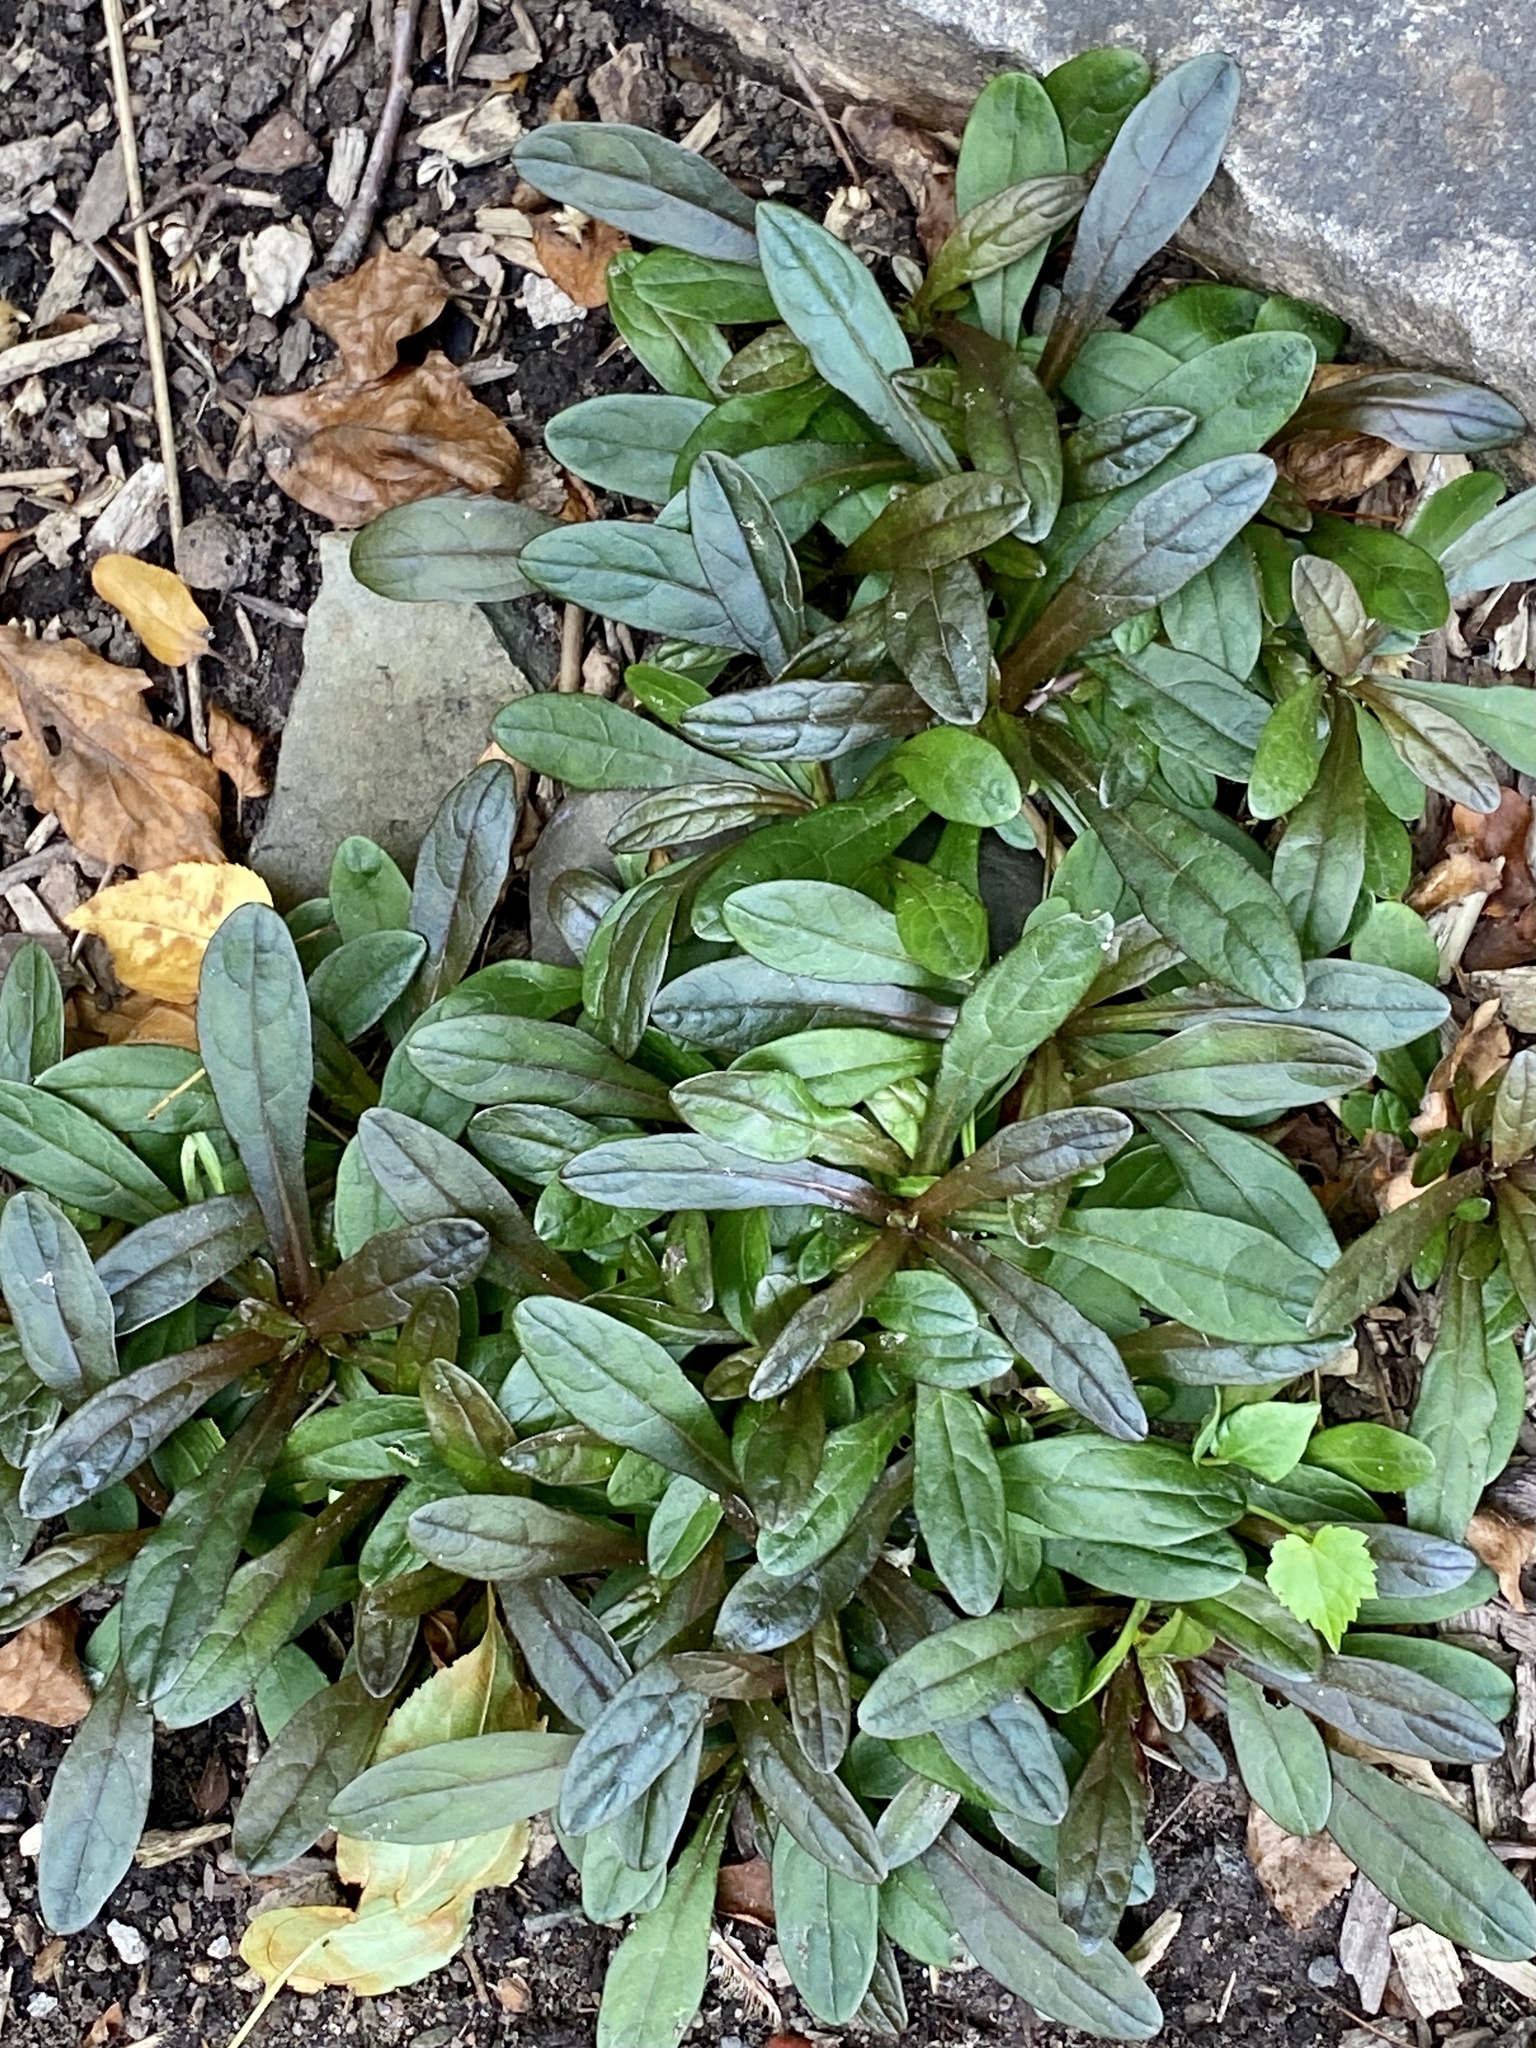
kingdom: Plantae
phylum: Tracheophyta
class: Magnoliopsida
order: Lamiales
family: Lamiaceae
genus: Ajuga
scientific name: Ajuga reptans
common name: Bugle
